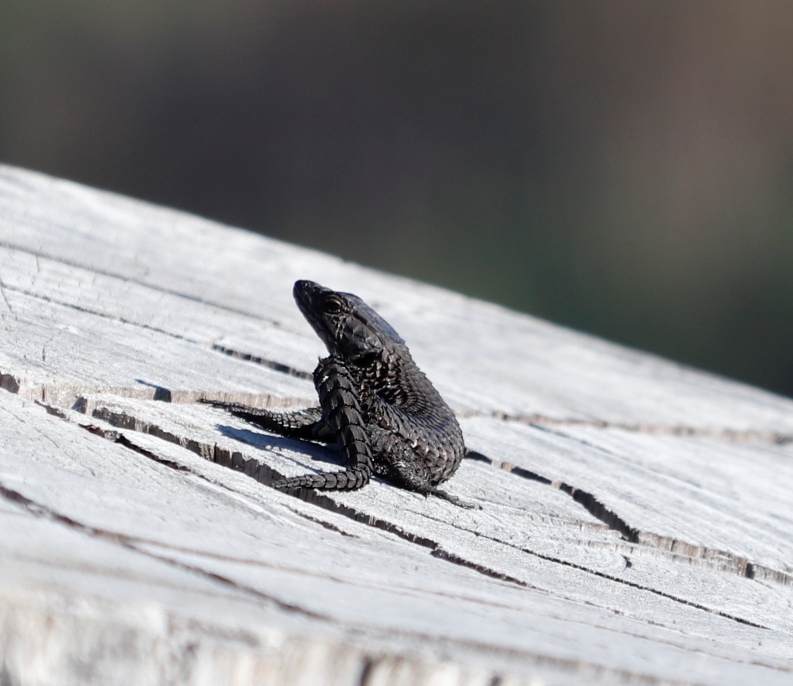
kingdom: Animalia
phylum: Chordata
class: Squamata
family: Cordylidae
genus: Cordylus
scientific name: Cordylus niger
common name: Black girdled lizard
